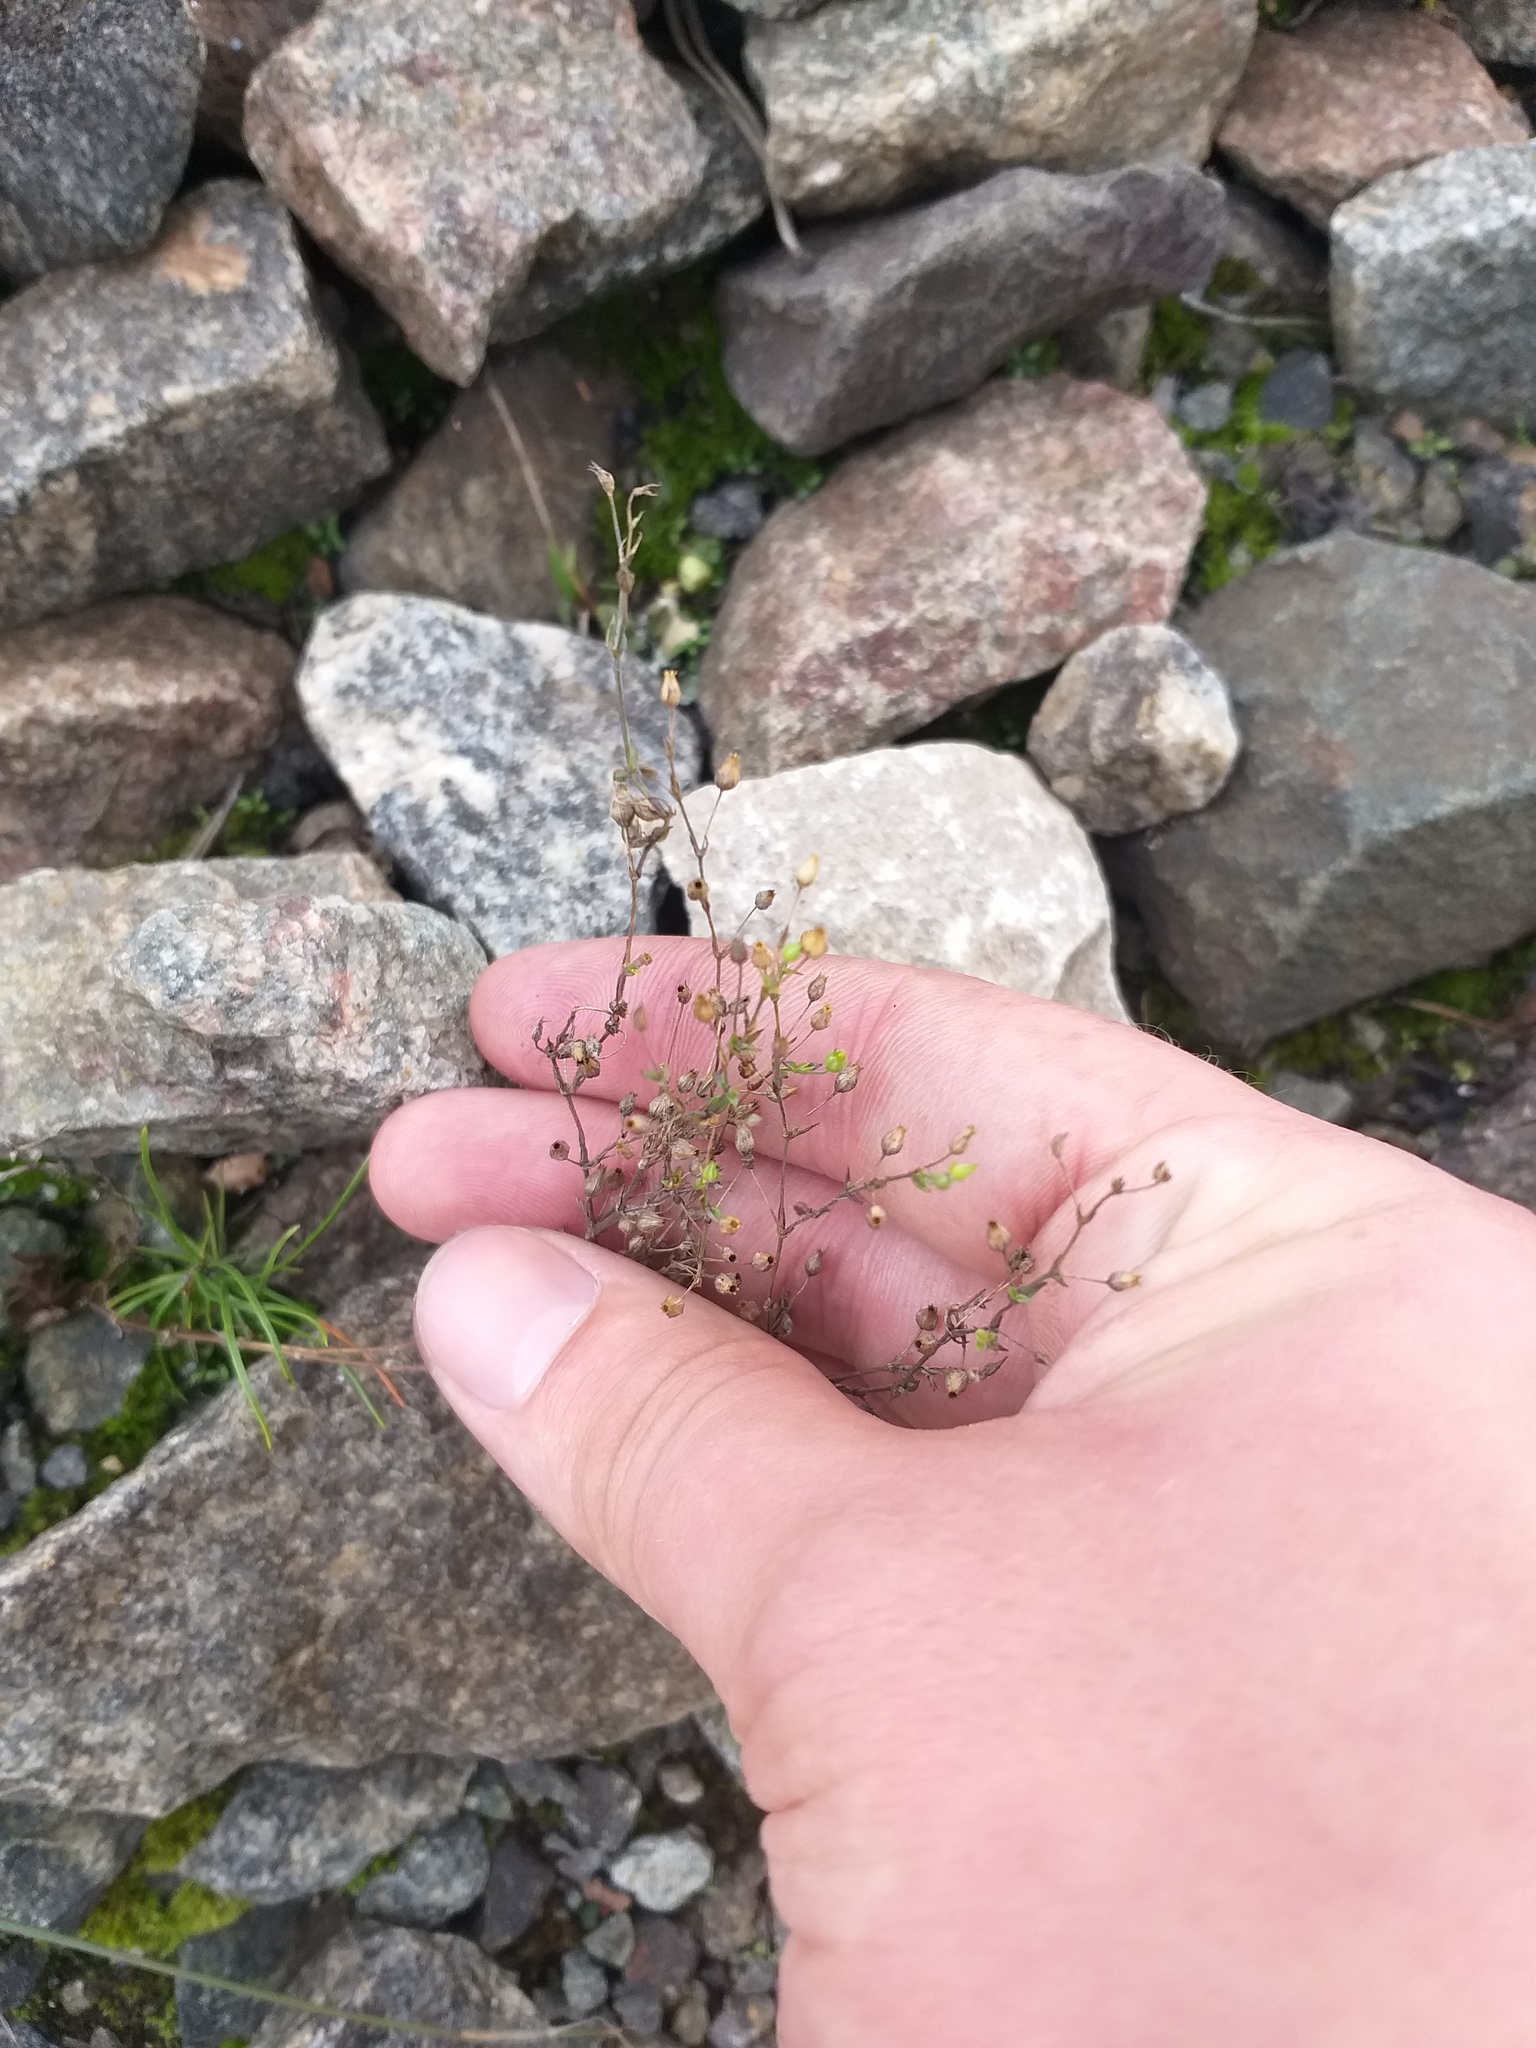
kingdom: Plantae
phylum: Tracheophyta
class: Magnoliopsida
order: Caryophyllales
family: Caryophyllaceae
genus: Arenaria
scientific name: Arenaria serpyllifolia
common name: Thyme-leaved sandwort
